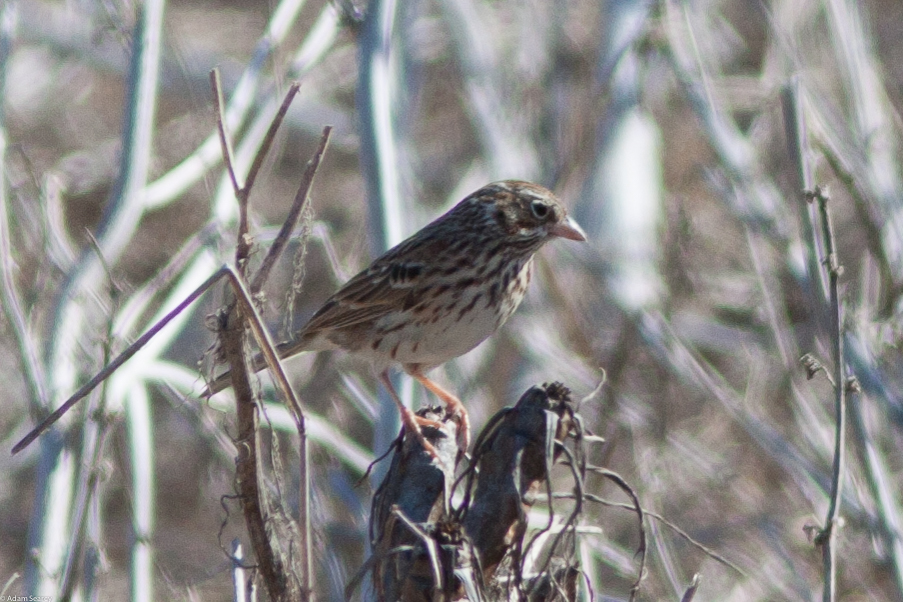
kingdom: Animalia
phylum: Chordata
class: Aves
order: Passeriformes
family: Passerellidae
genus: Pooecetes
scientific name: Pooecetes gramineus
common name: Vesper sparrow
